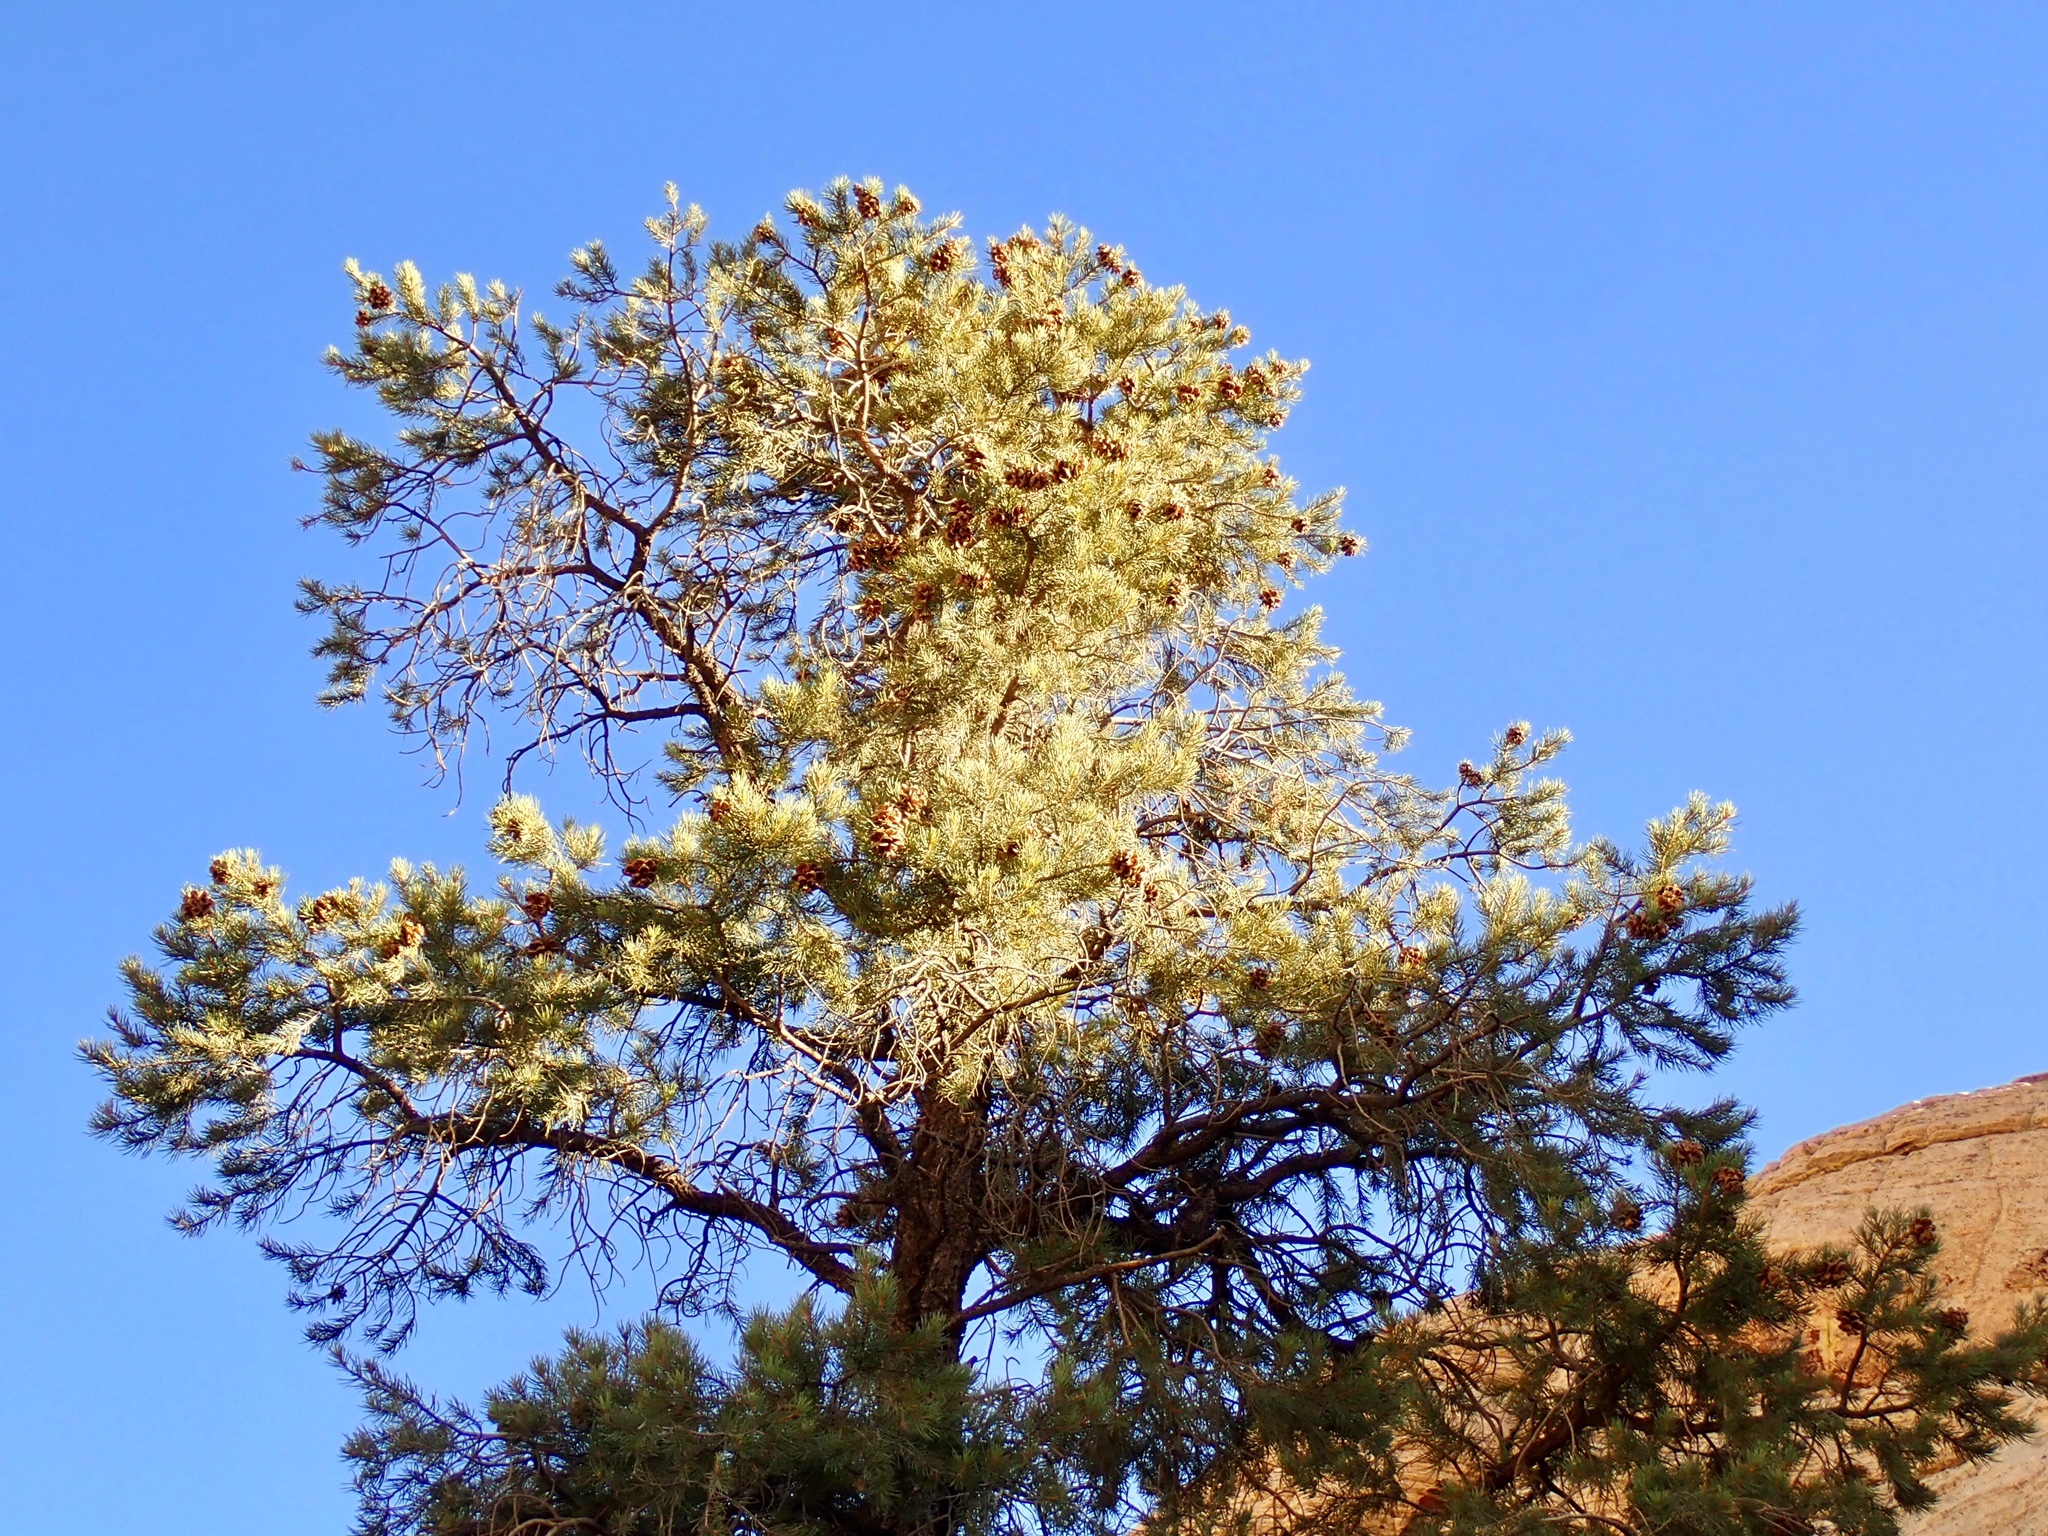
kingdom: Plantae
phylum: Tracheophyta
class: Pinopsida
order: Pinales
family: Pinaceae
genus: Pinus
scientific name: Pinus monophylla
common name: One-leaved nut pine
